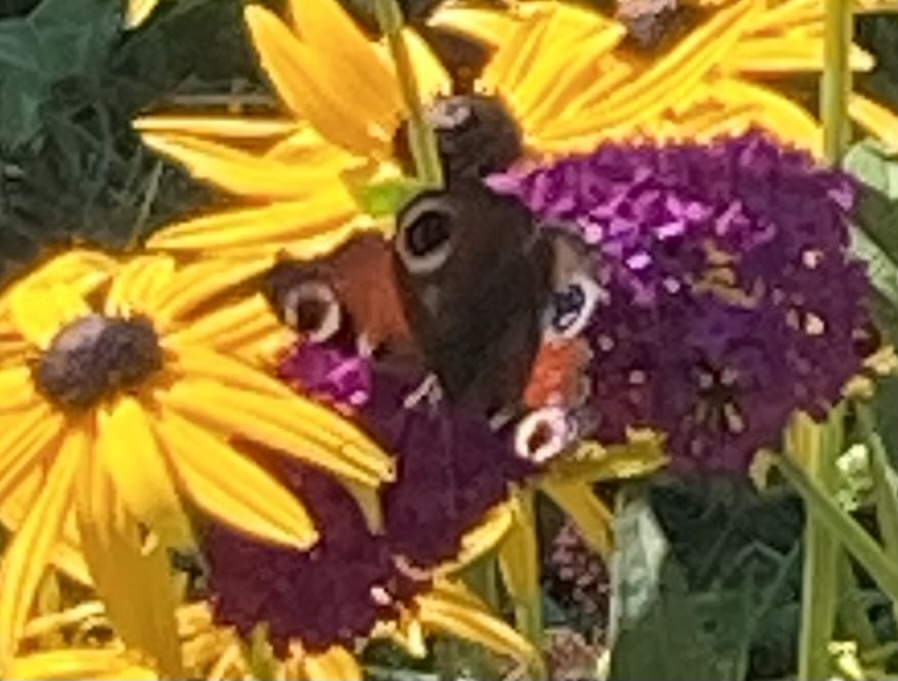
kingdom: Animalia
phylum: Arthropoda
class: Insecta
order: Lepidoptera
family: Nymphalidae
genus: Aglais
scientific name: Aglais io
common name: Peacock
